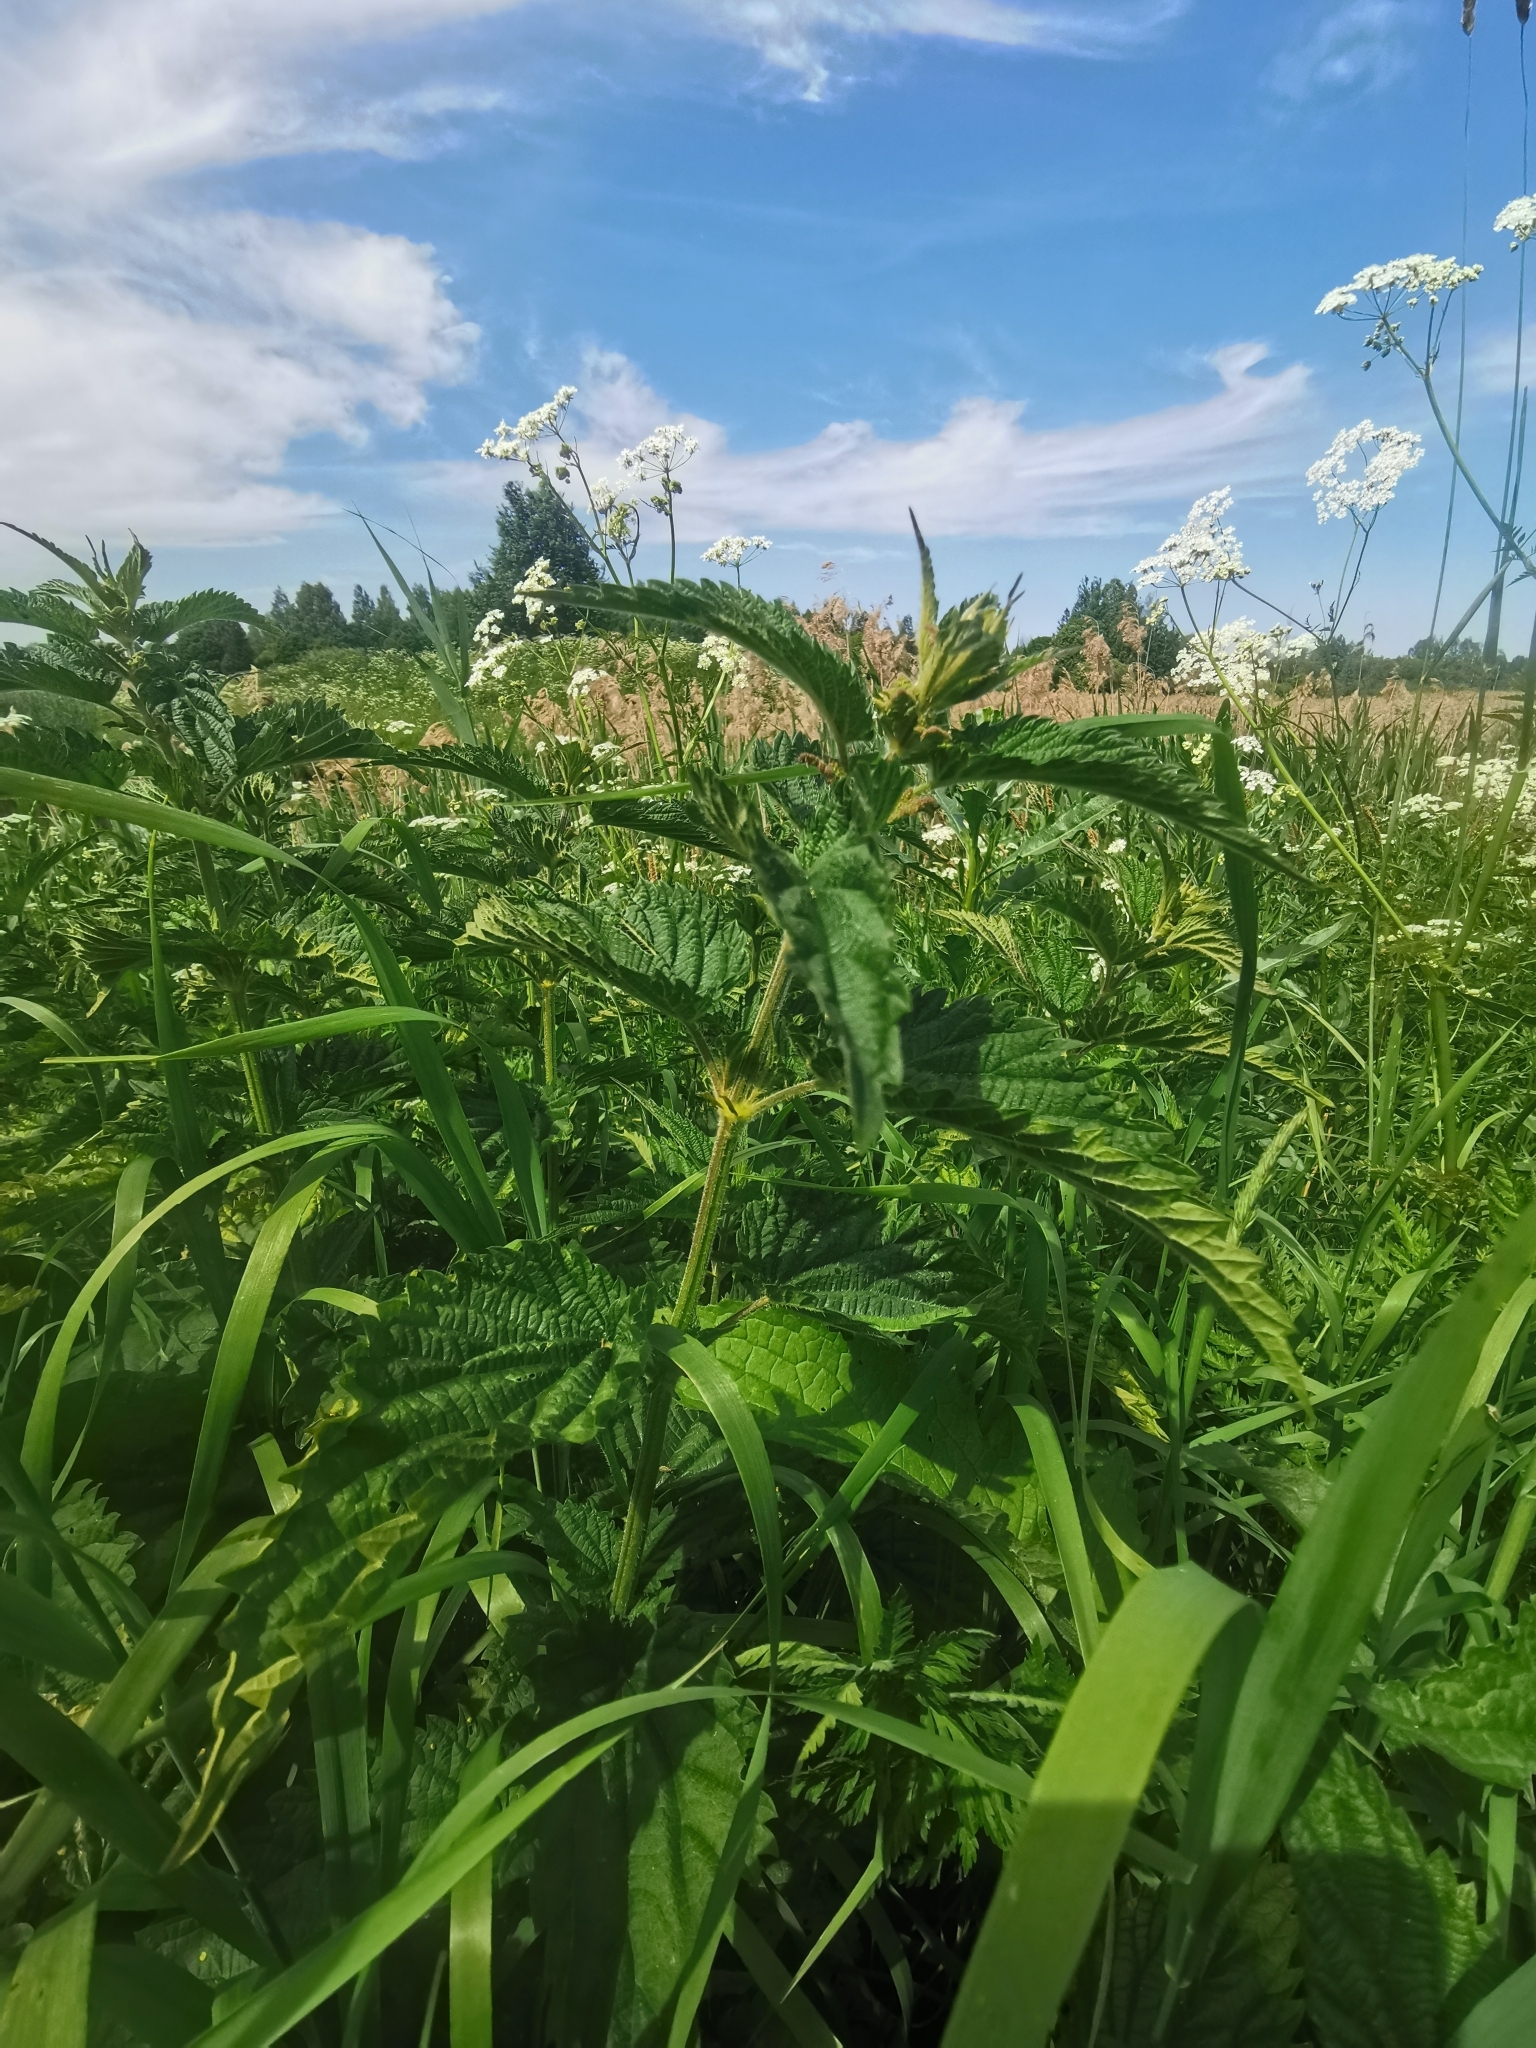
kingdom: Plantae
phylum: Tracheophyta
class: Magnoliopsida
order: Rosales
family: Urticaceae
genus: Urtica
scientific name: Urtica dioica
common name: Common nettle
